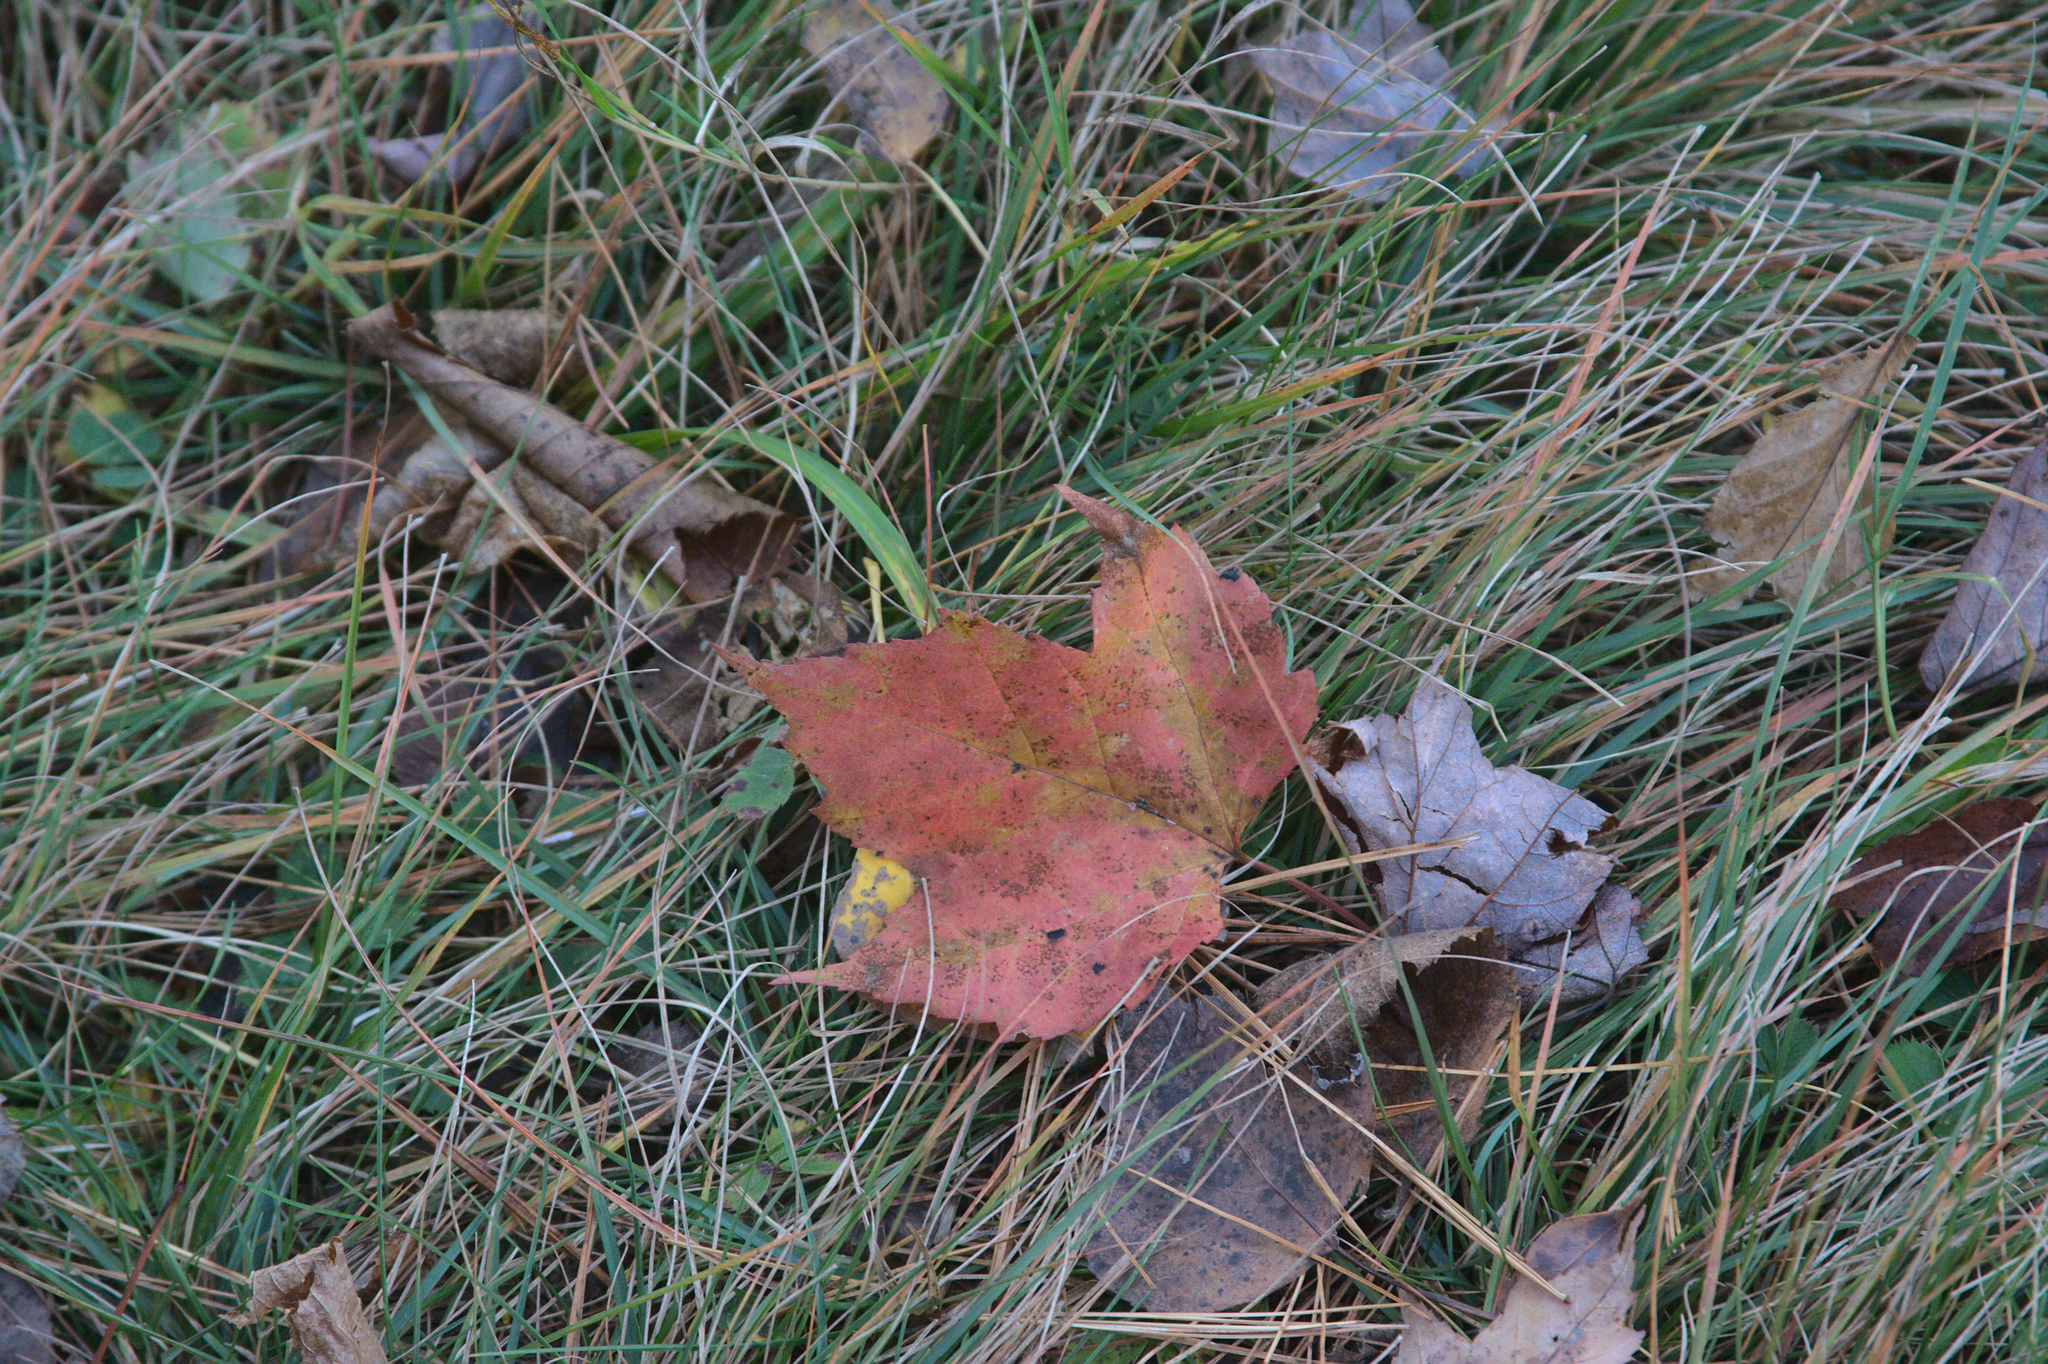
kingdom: Plantae
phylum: Tracheophyta
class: Magnoliopsida
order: Sapindales
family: Sapindaceae
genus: Acer
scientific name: Acer rubrum
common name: Red maple
